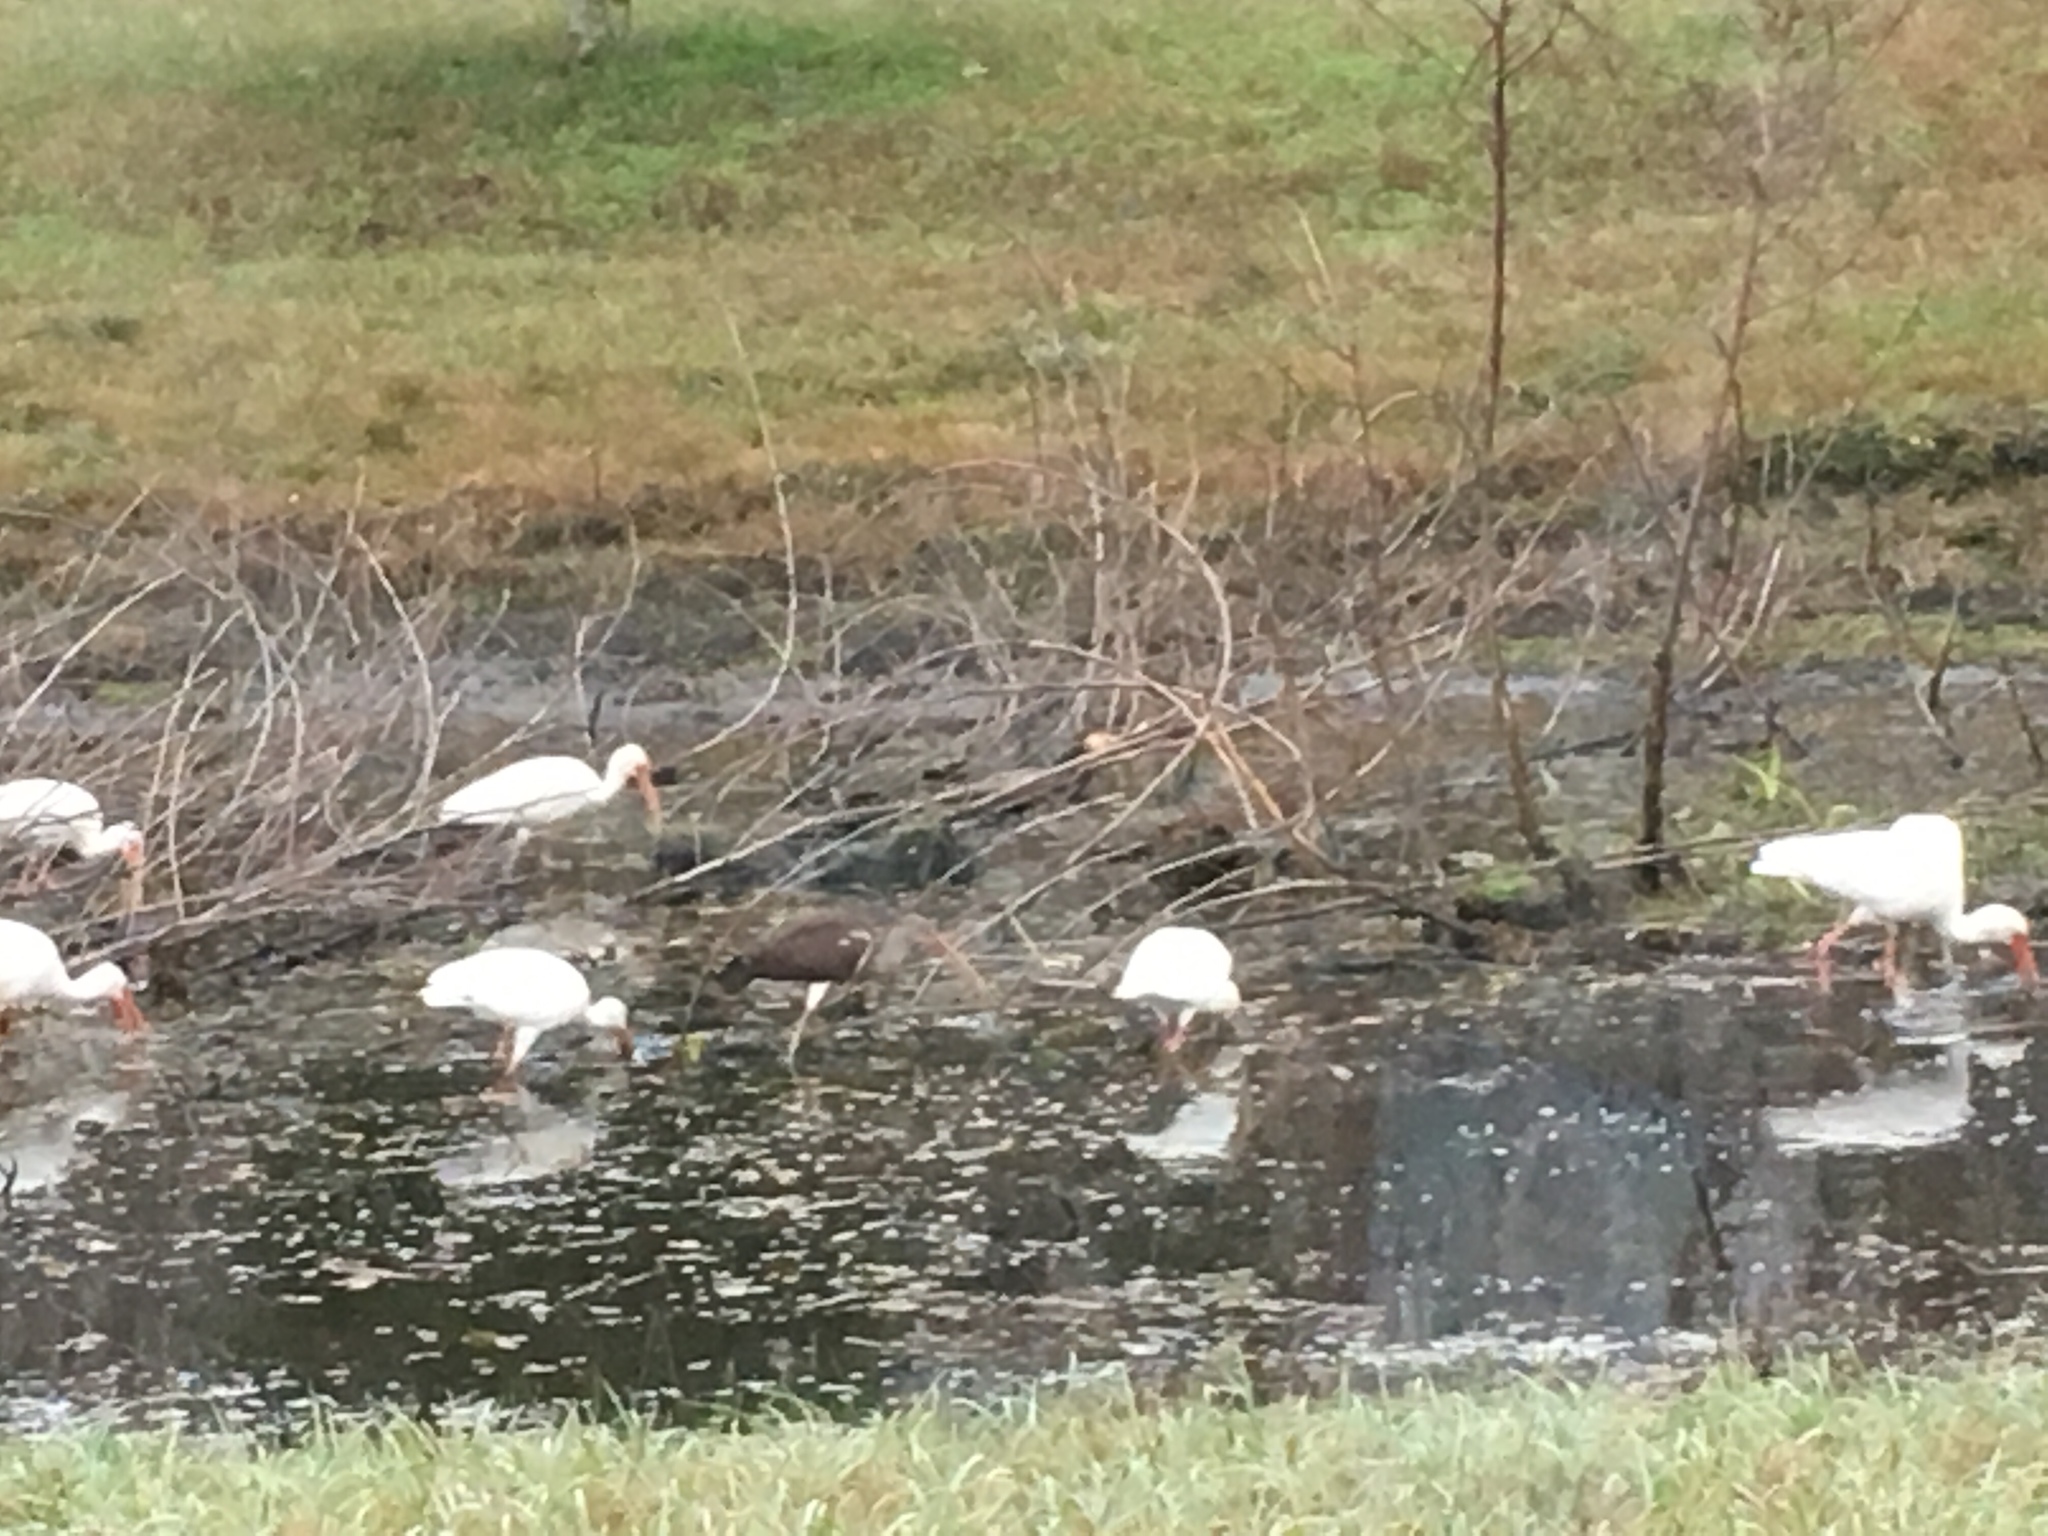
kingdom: Animalia
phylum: Chordata
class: Aves
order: Pelecaniformes
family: Threskiornithidae
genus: Eudocimus
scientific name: Eudocimus albus
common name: White ibis
